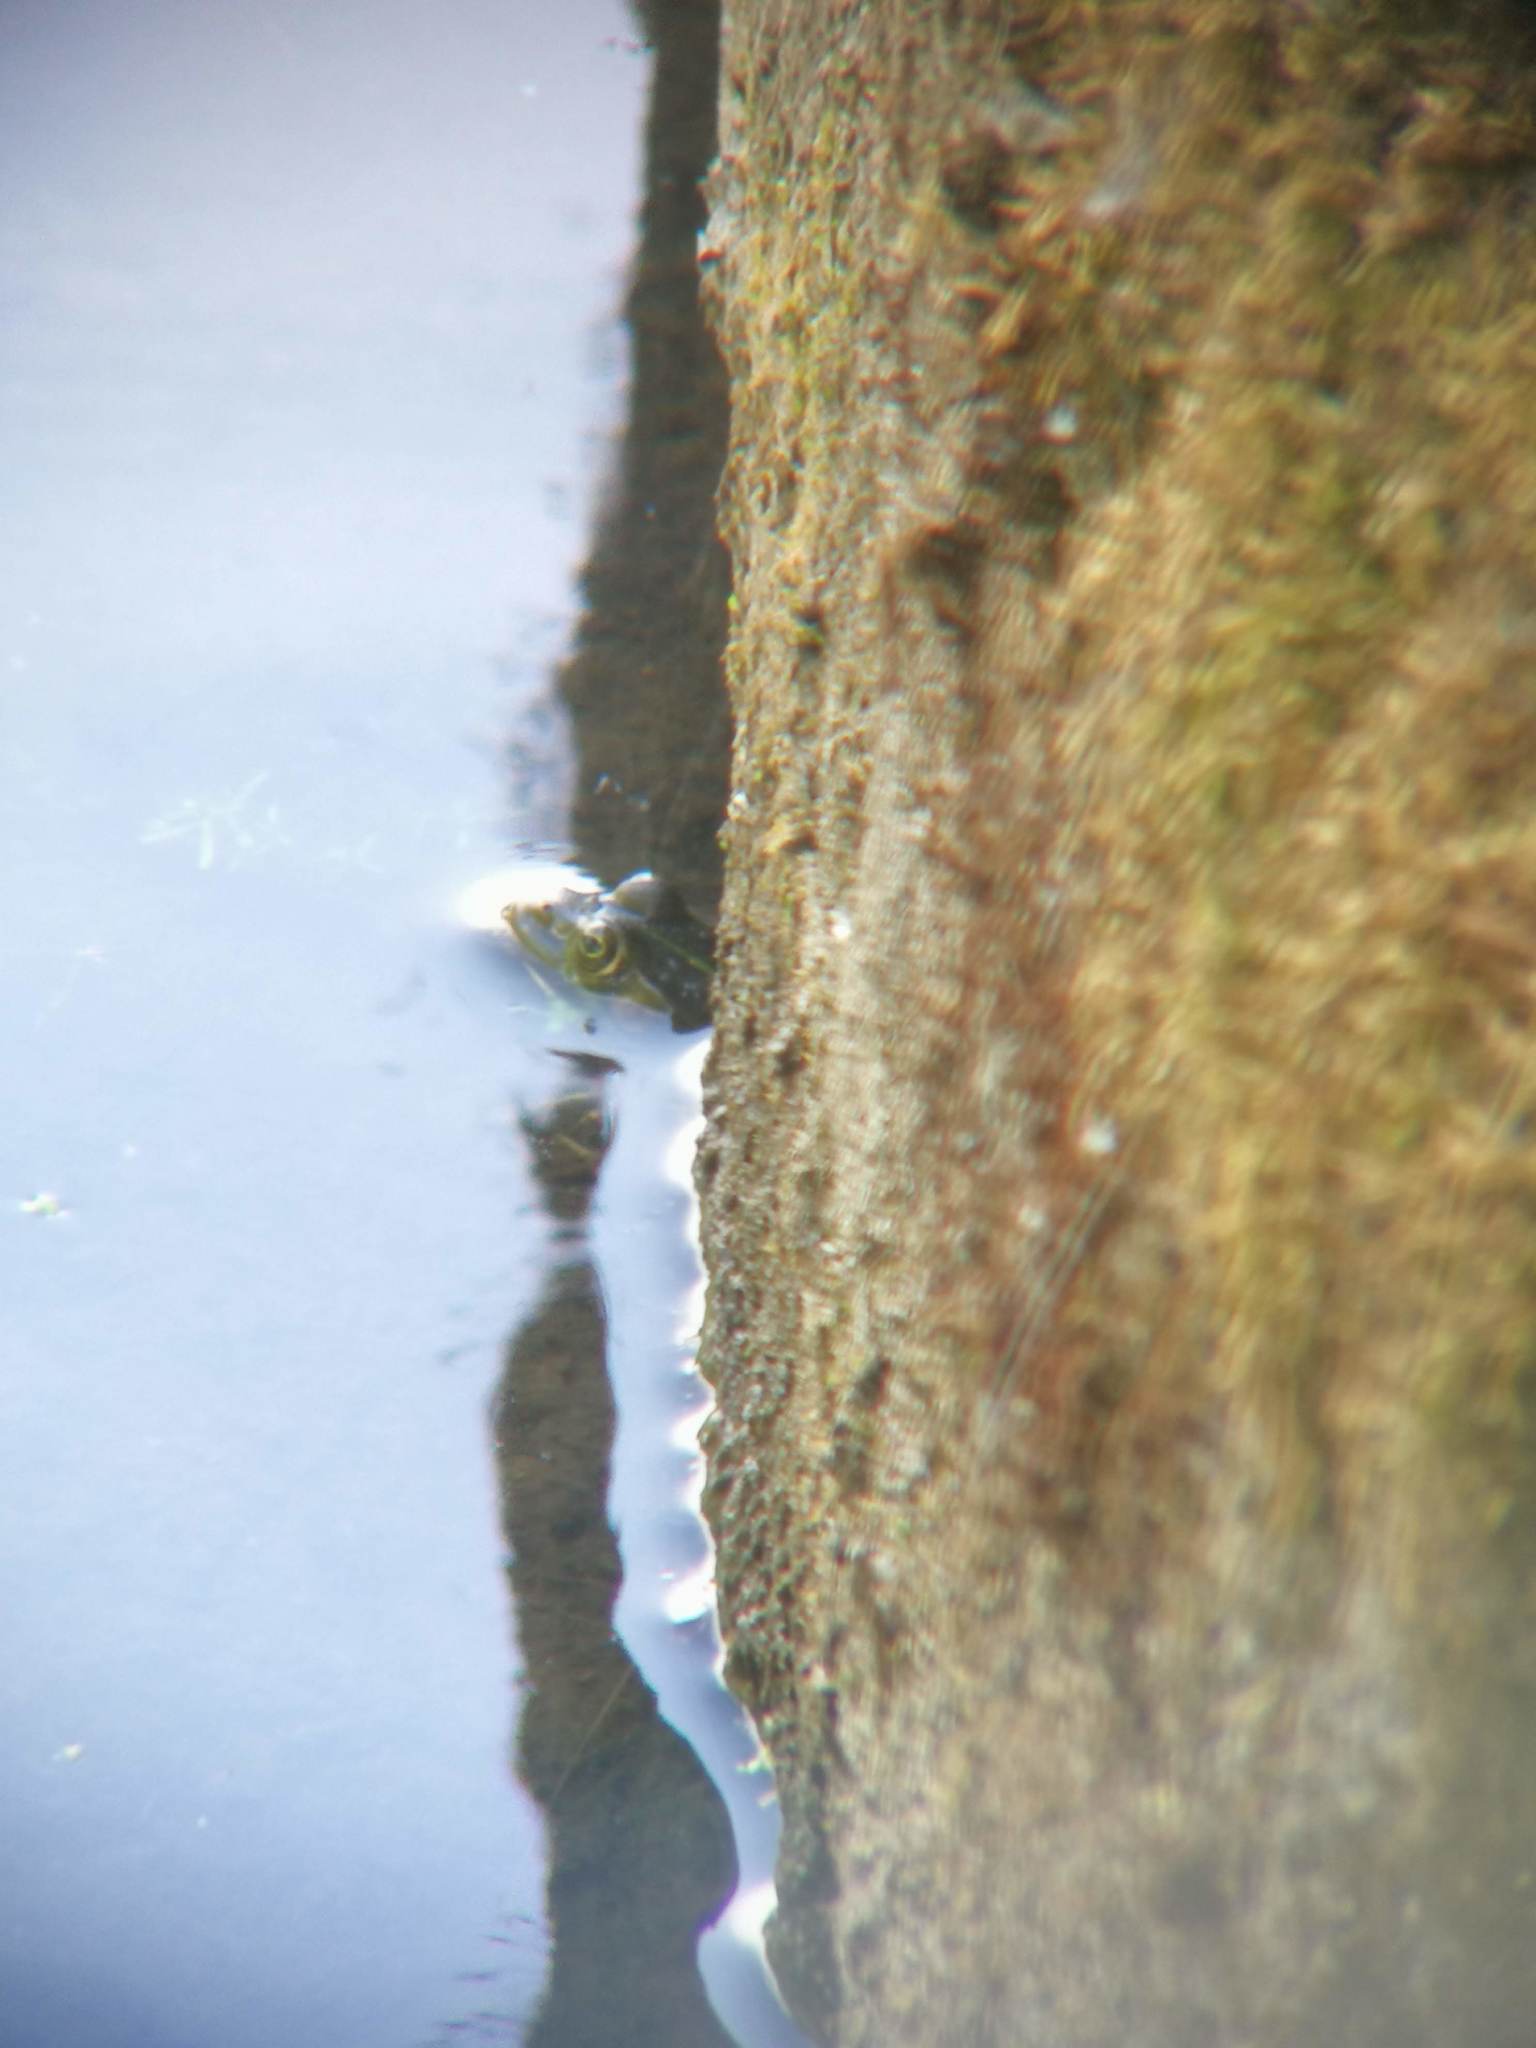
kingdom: Animalia
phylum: Chordata
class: Amphibia
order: Anura
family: Ranidae
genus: Pelophylax
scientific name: Pelophylax
